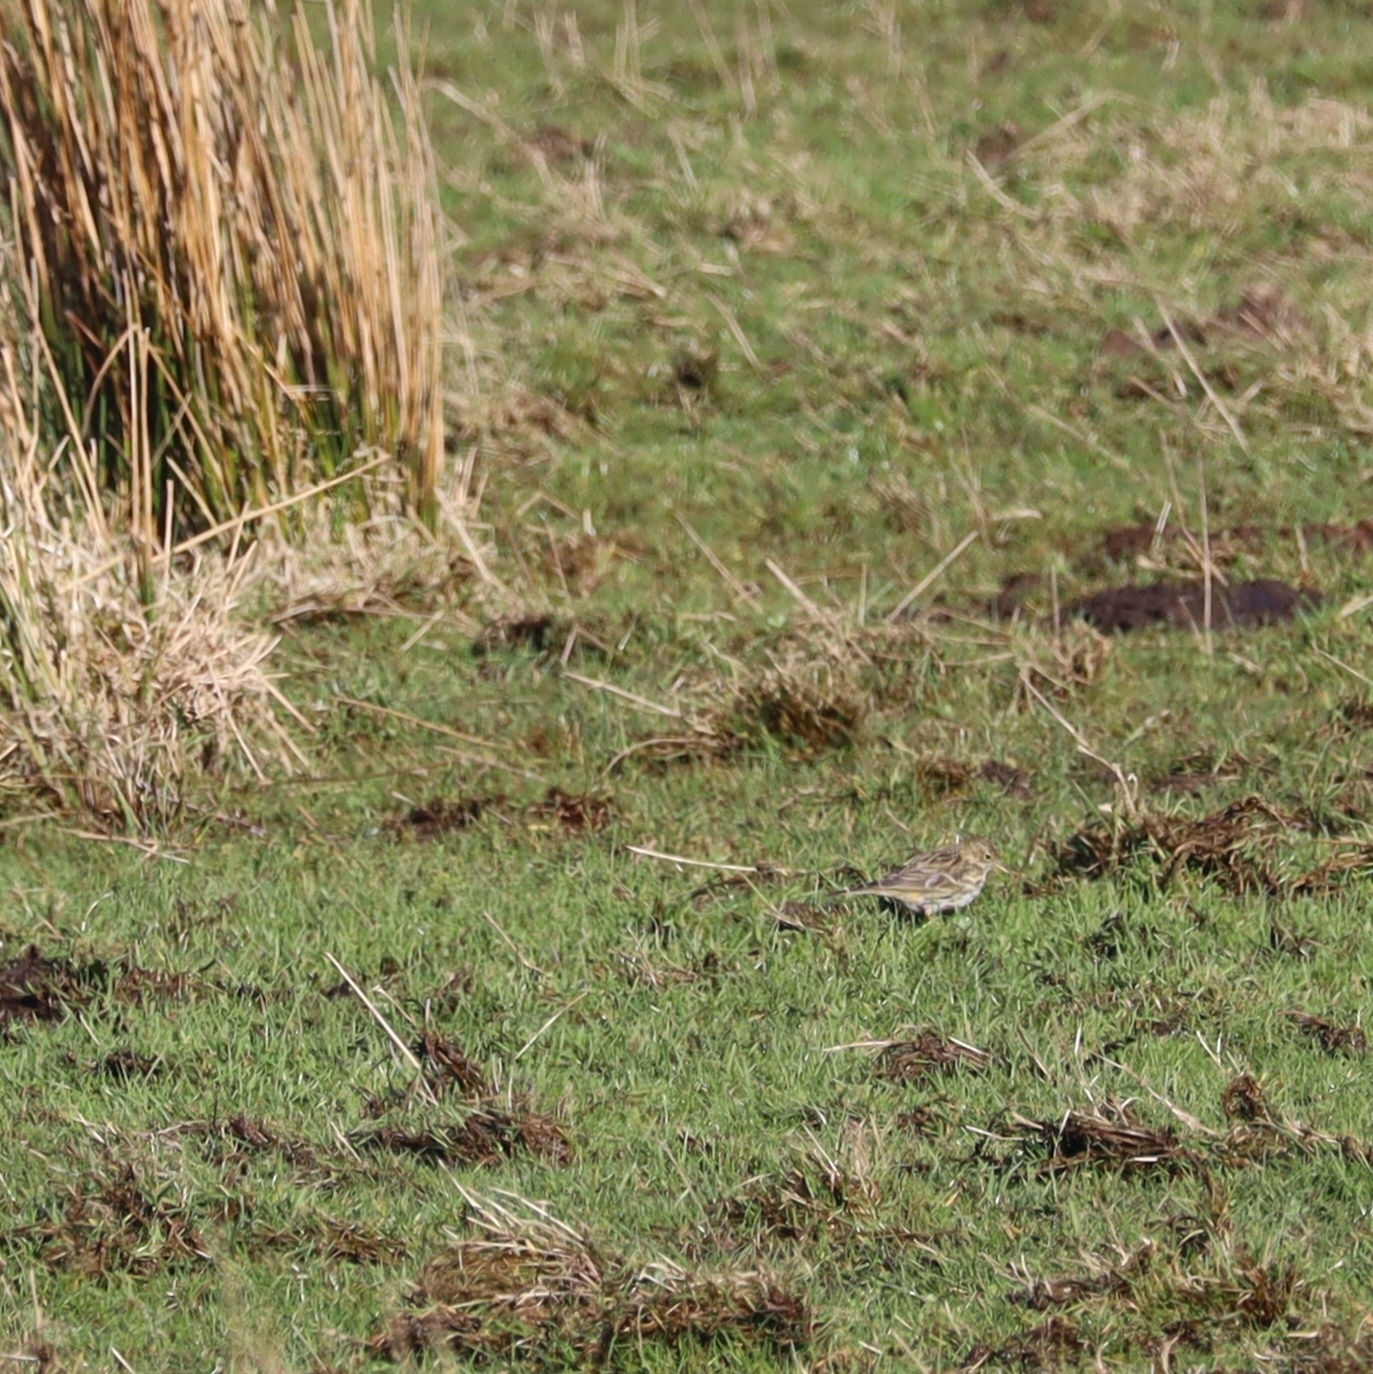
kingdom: Animalia
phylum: Chordata
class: Aves
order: Passeriformes
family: Motacillidae
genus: Anthus
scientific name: Anthus pratensis
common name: Meadow pipit
